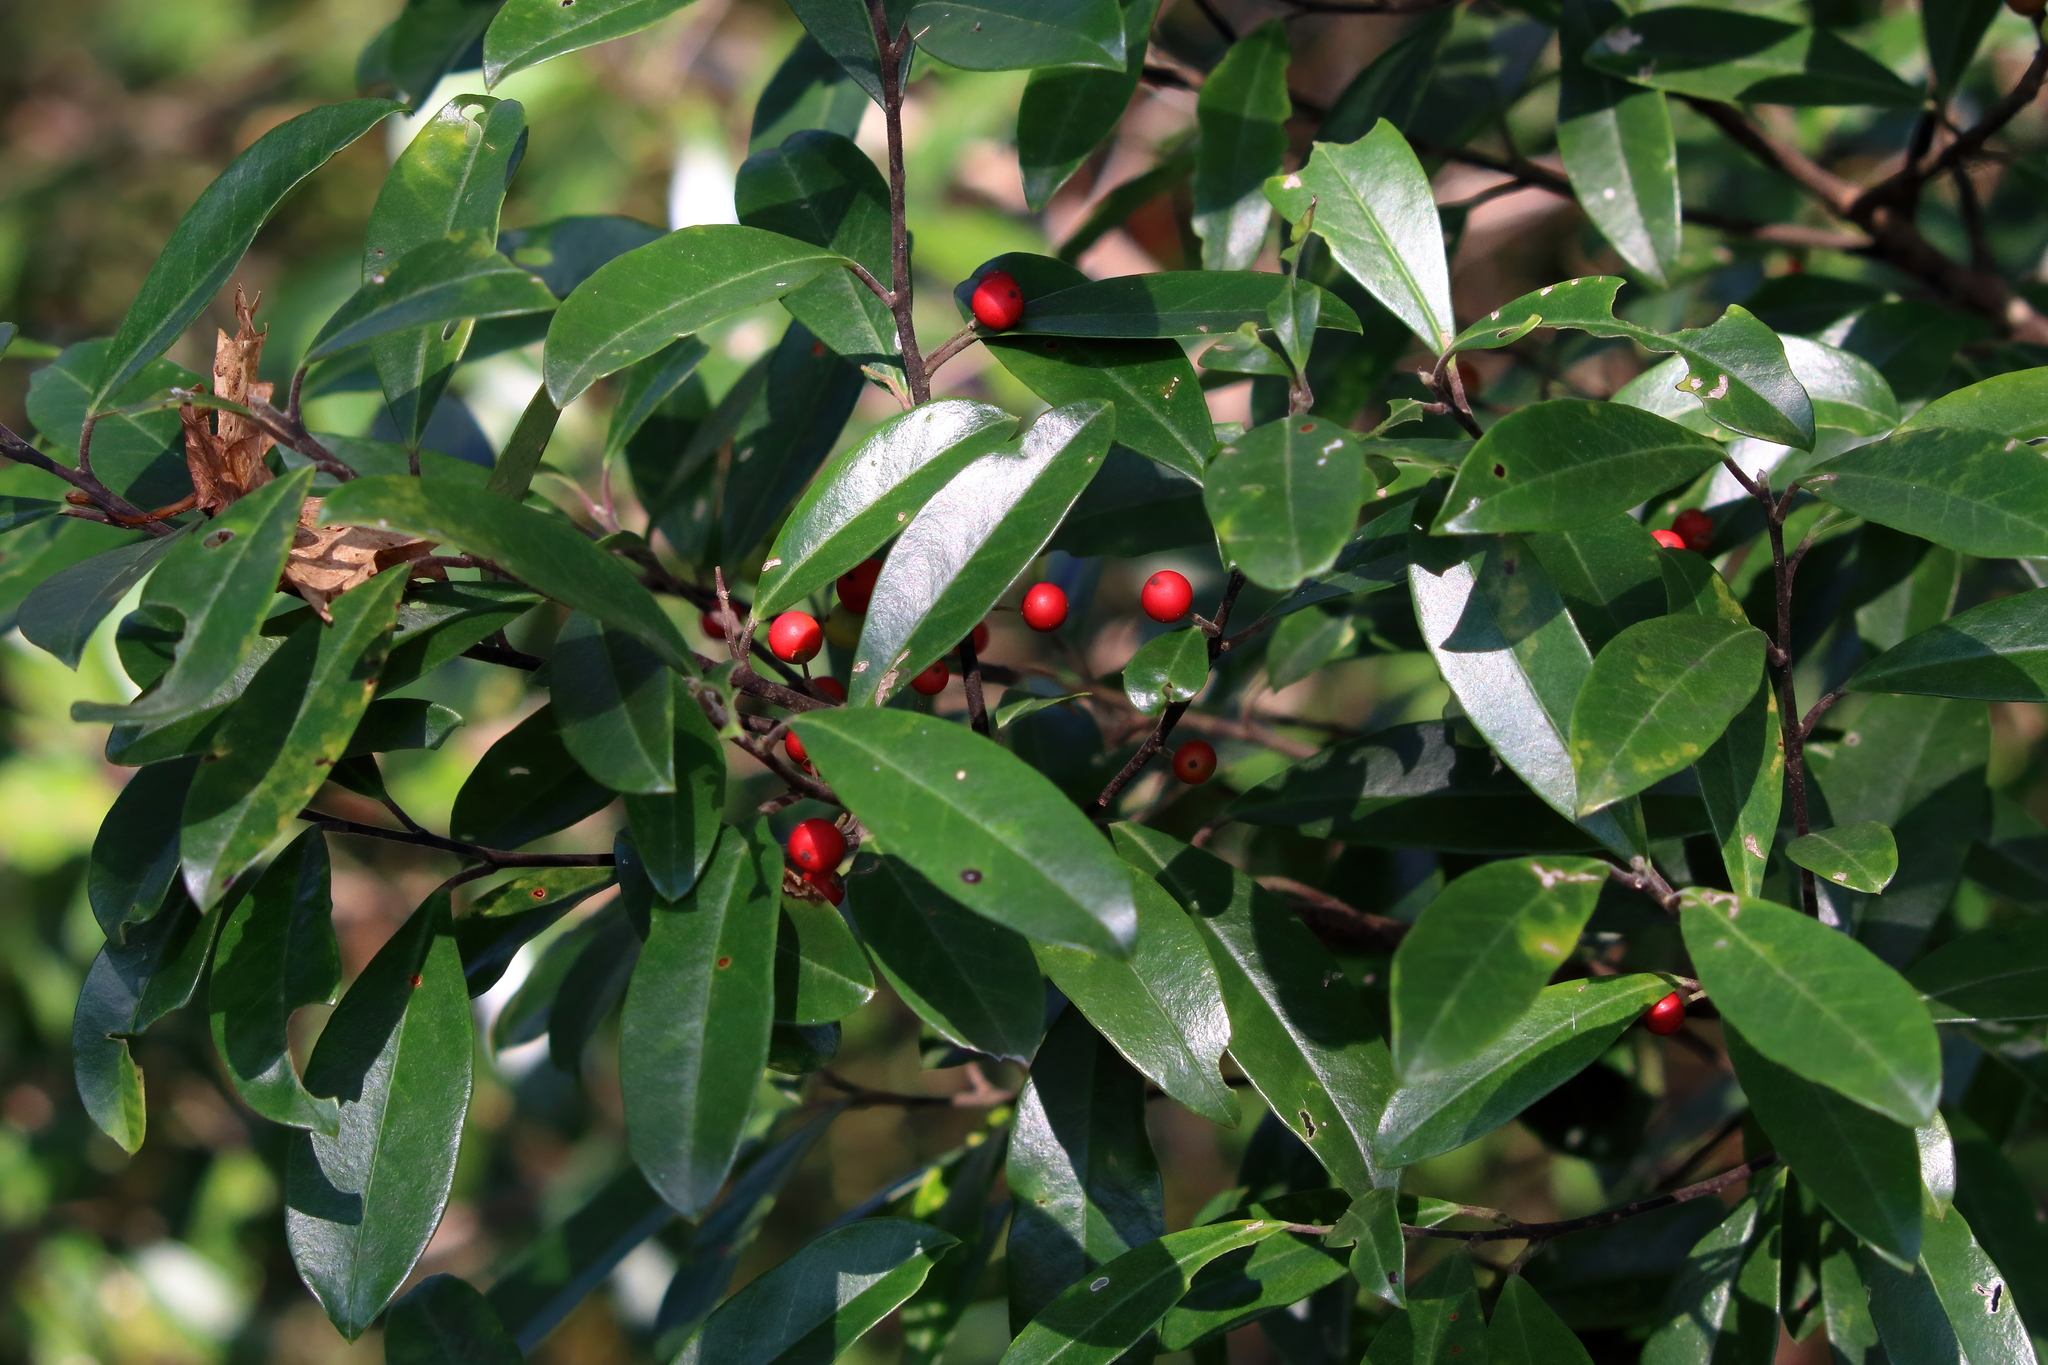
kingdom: Plantae
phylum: Tracheophyta
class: Magnoliopsida
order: Aquifoliales
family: Aquifoliaceae
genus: Ilex
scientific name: Ilex cassine
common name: Dahoon
